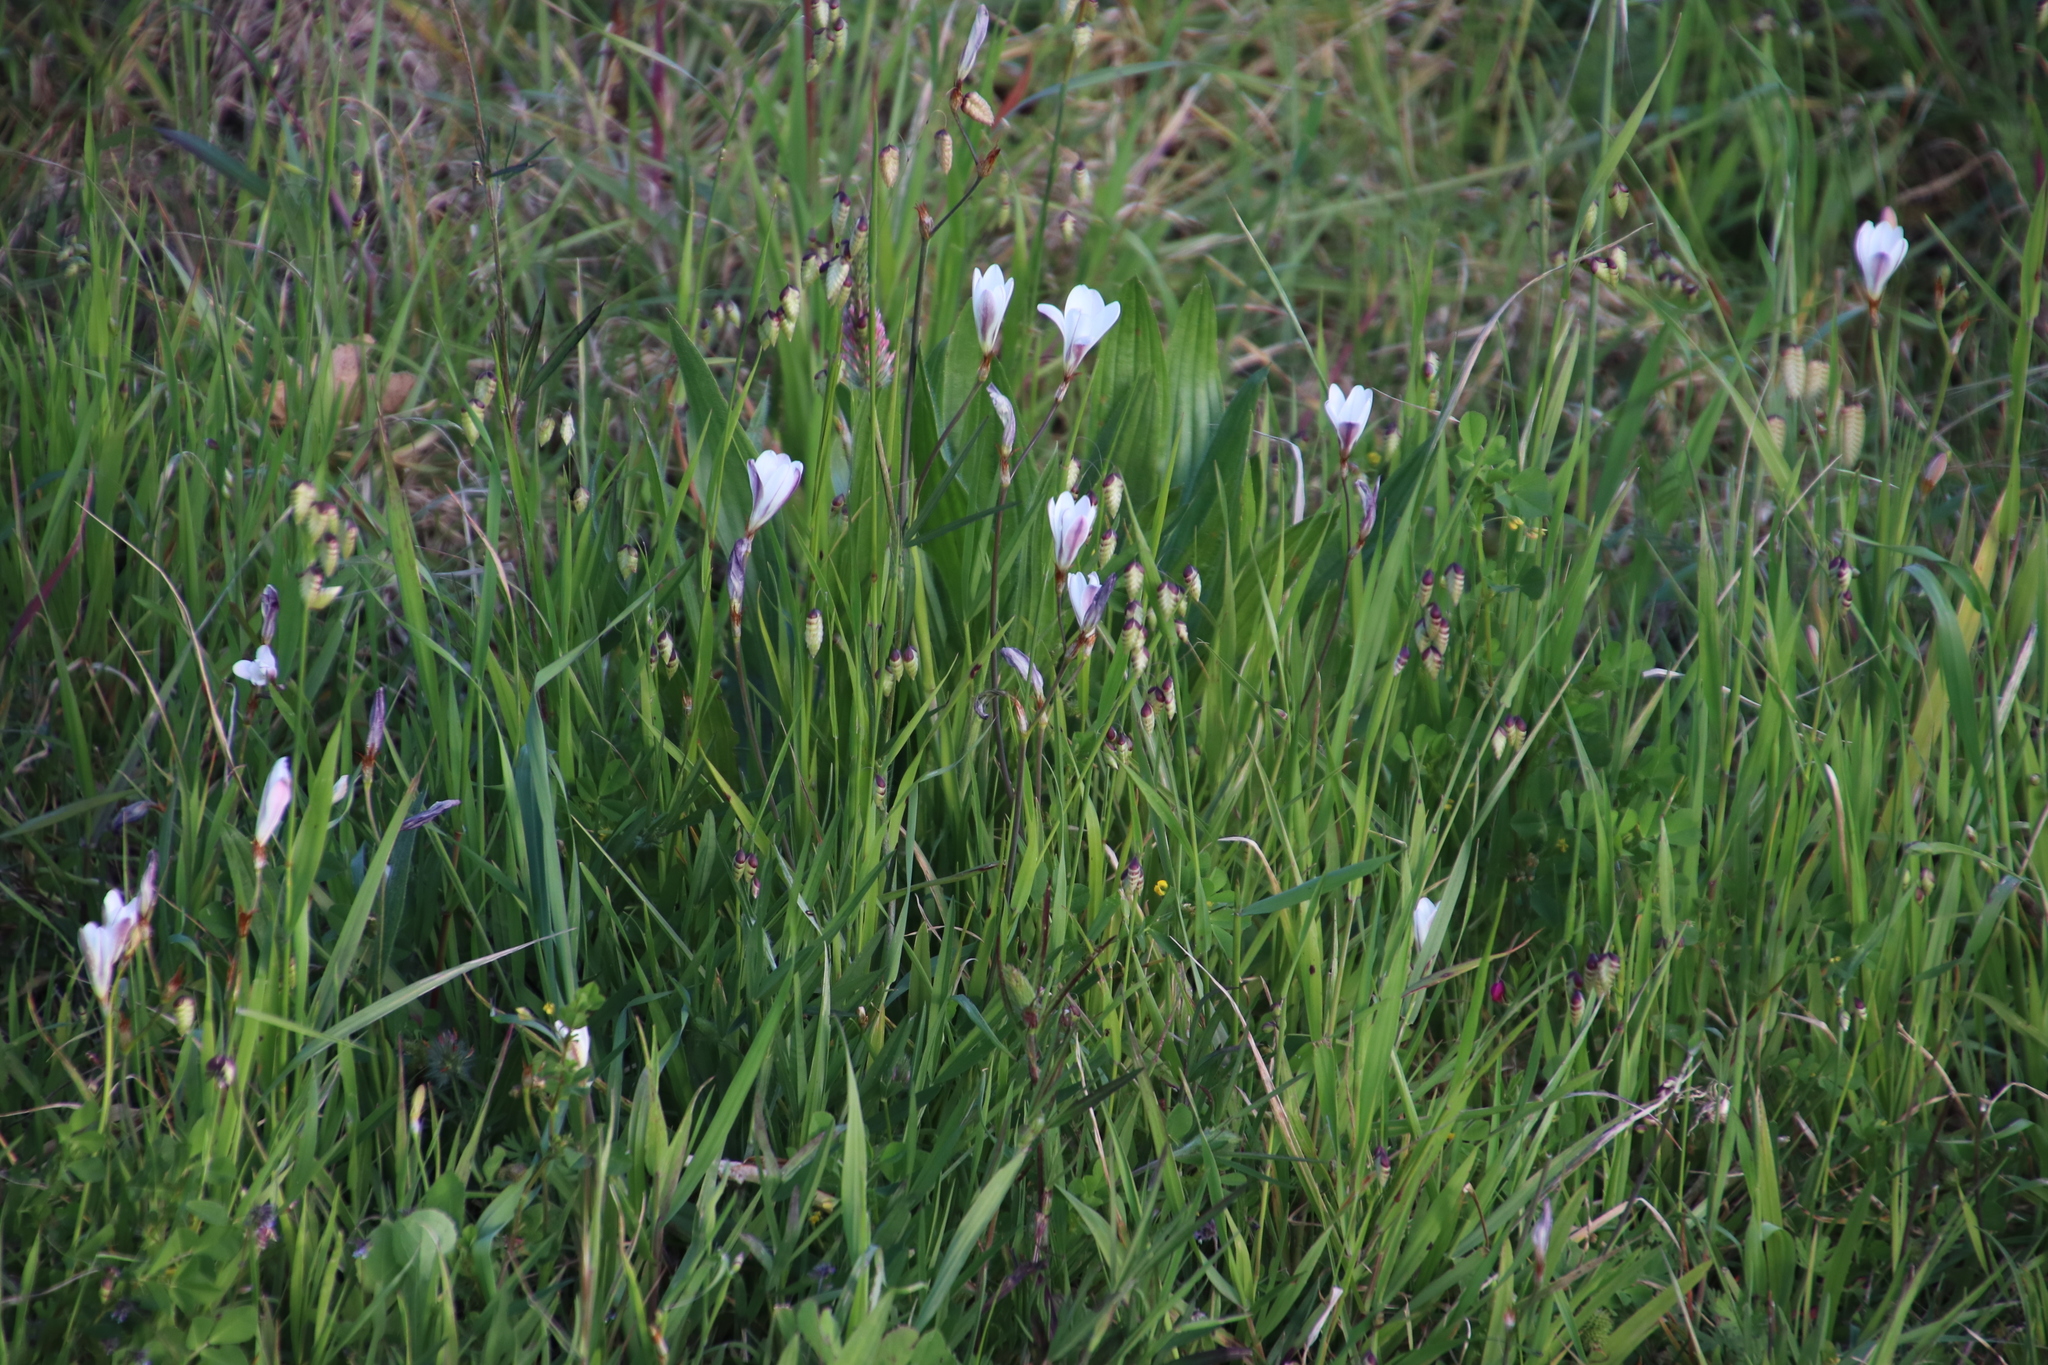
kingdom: Plantae
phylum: Tracheophyta
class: Liliopsida
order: Asparagales
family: Iridaceae
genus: Sparaxis
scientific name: Sparaxis bulbifera
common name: Harlequin-flower
